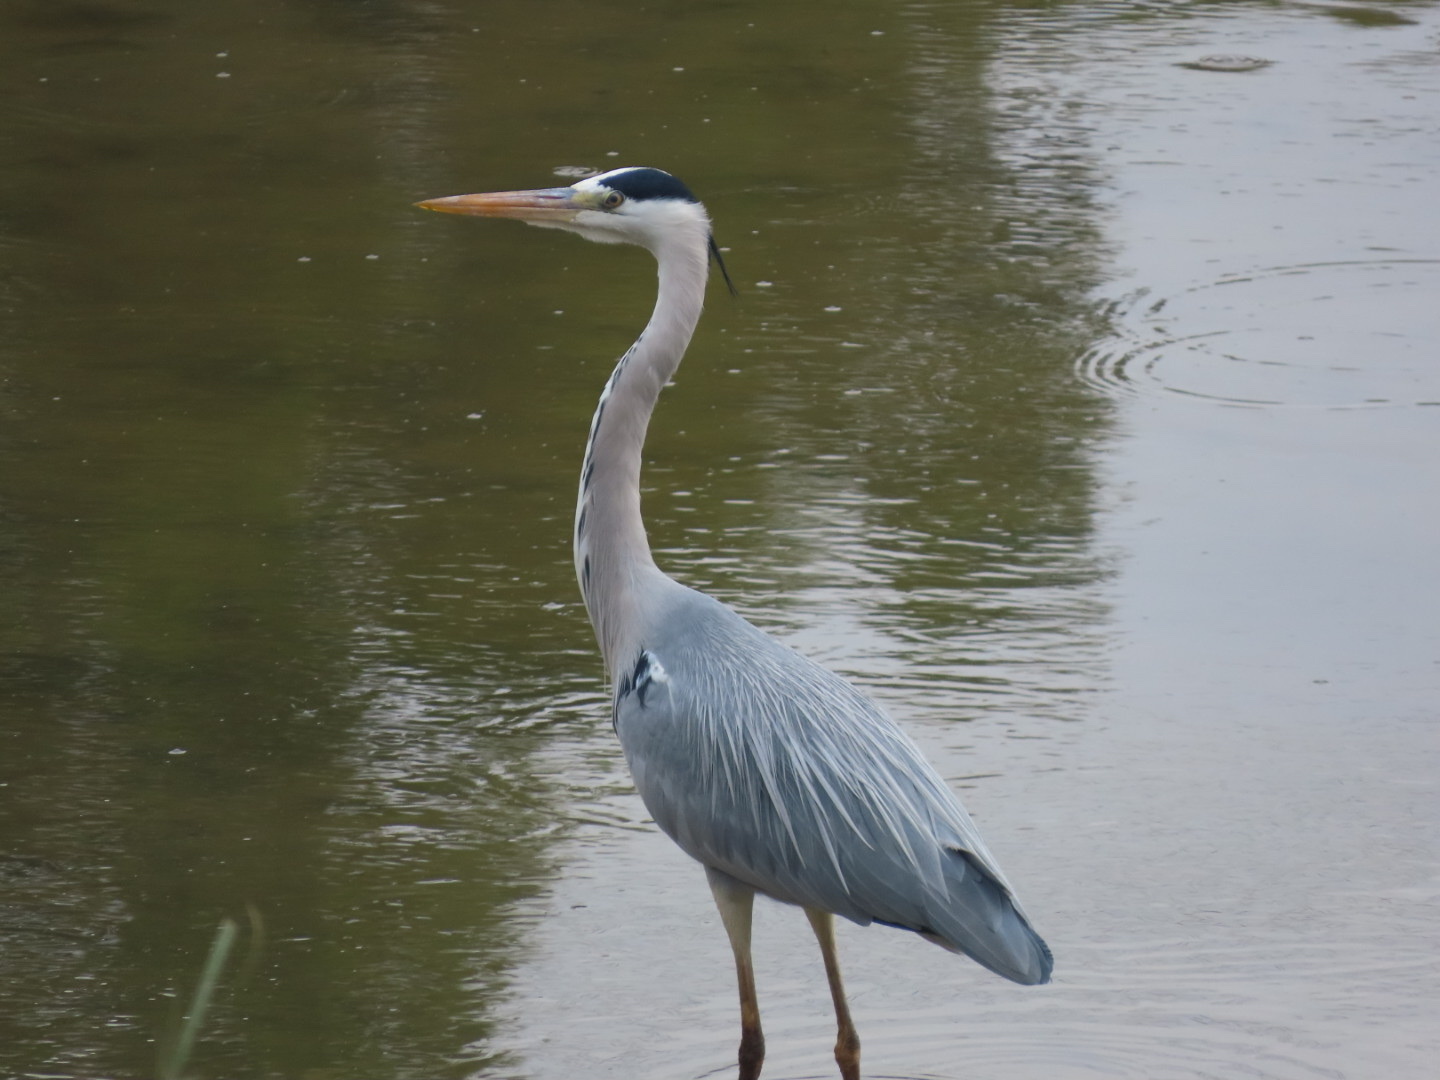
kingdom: Animalia
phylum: Chordata
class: Aves
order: Pelecaniformes
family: Ardeidae
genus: Ardea
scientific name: Ardea cinerea
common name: Grey heron
